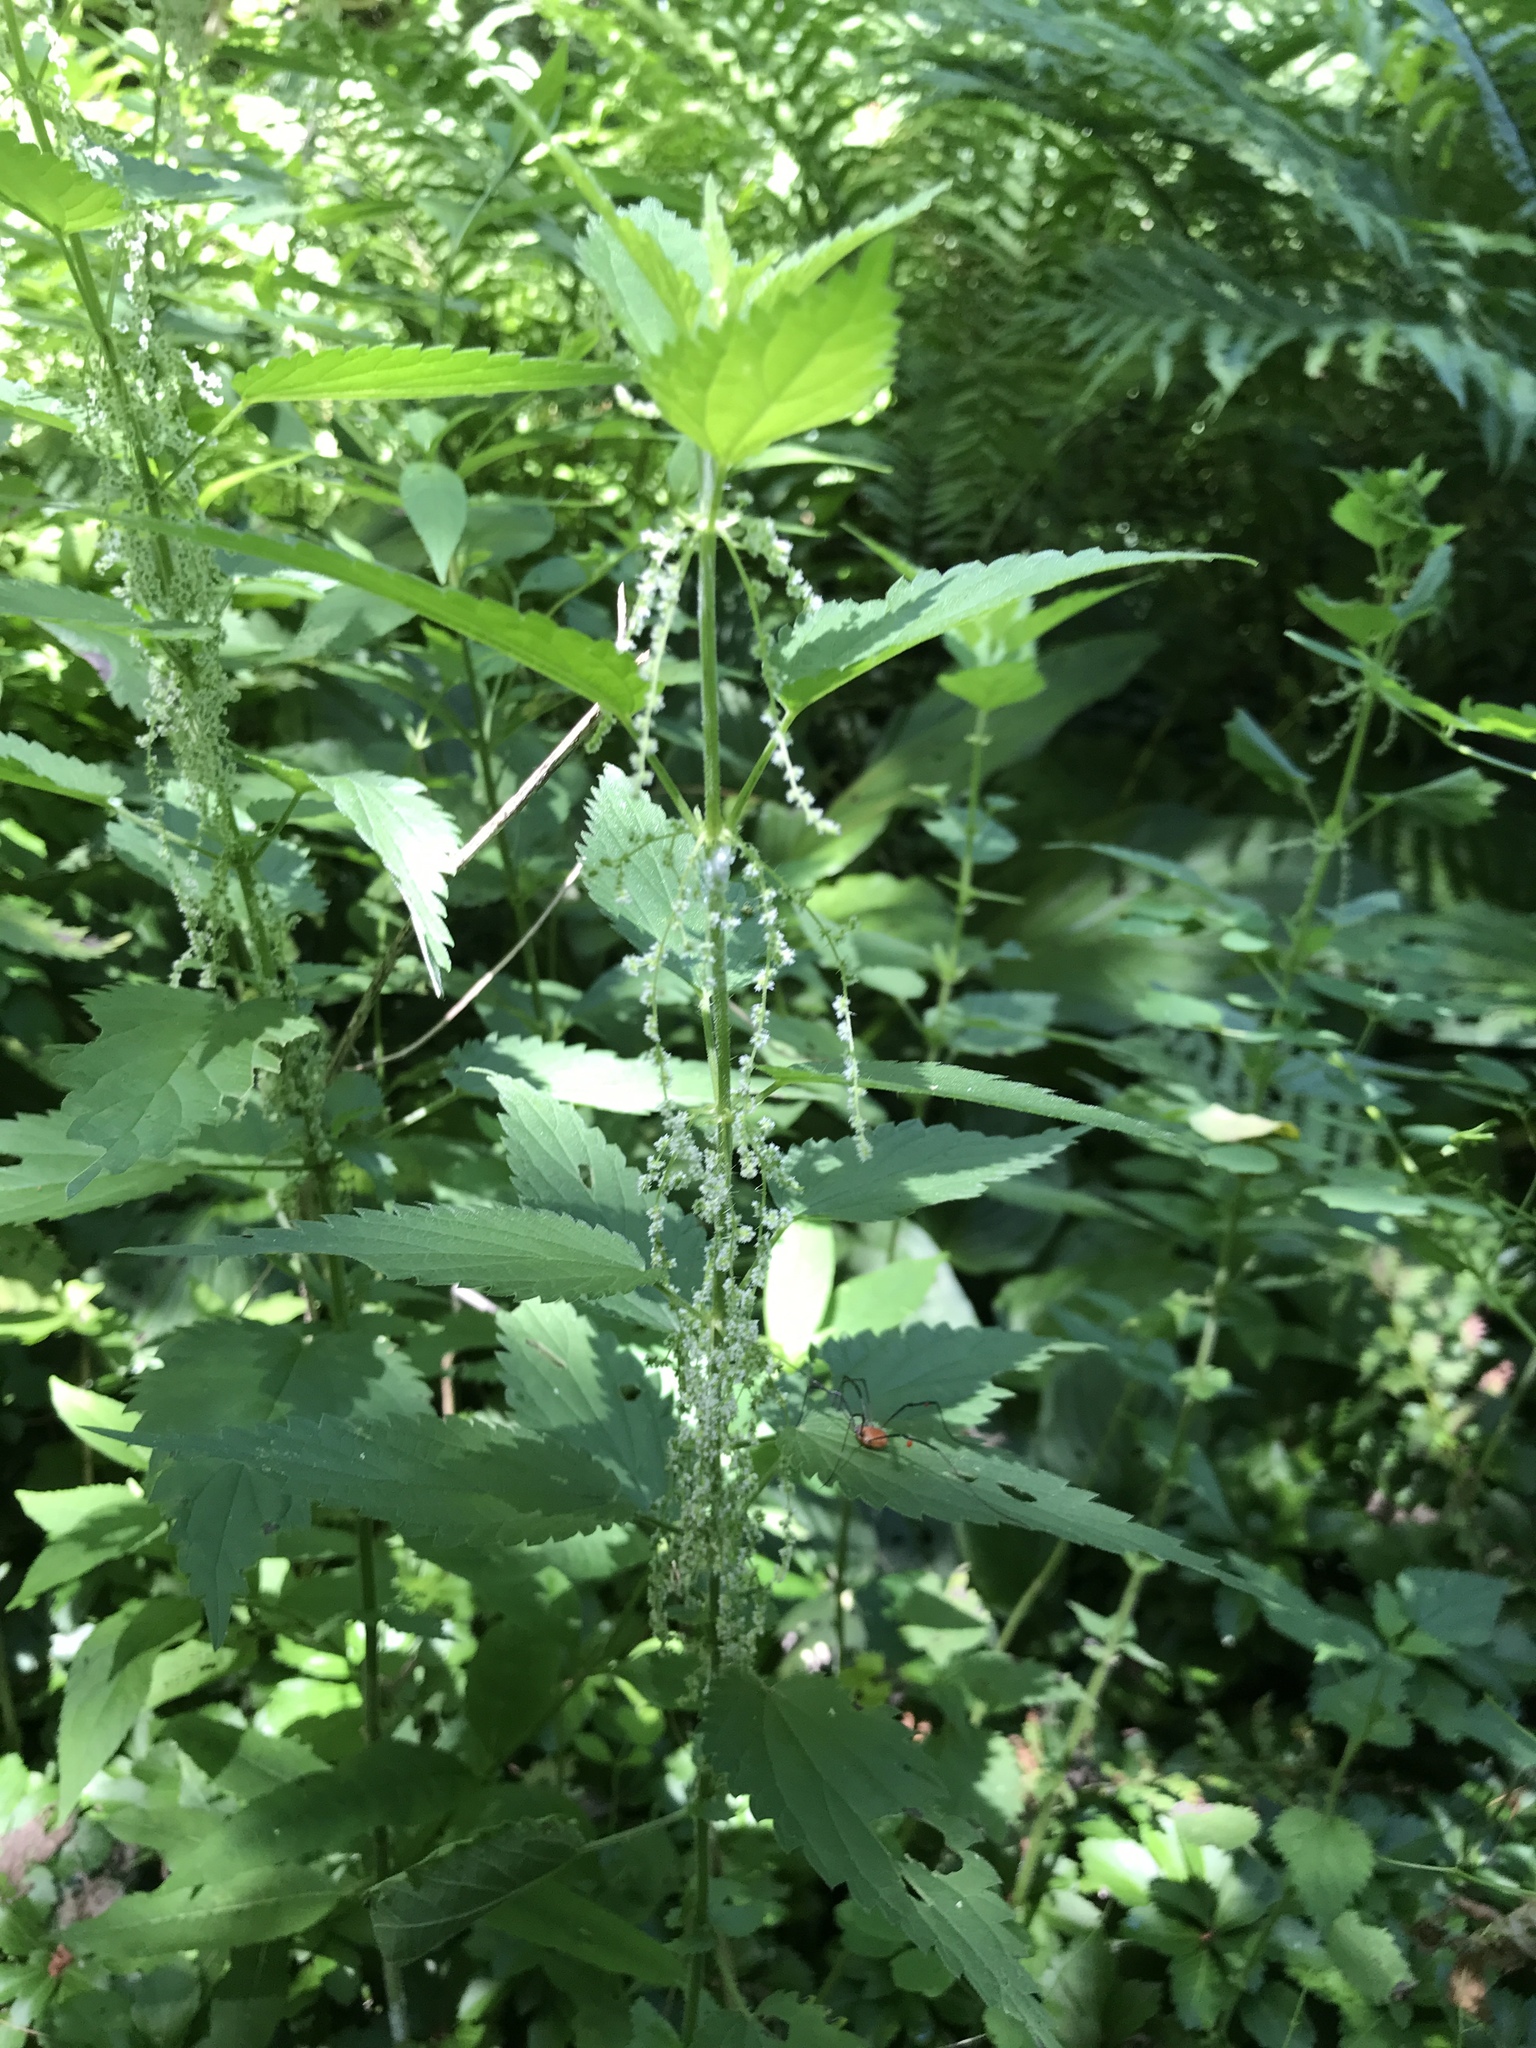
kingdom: Plantae
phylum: Tracheophyta
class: Magnoliopsida
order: Rosales
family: Urticaceae
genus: Urtica
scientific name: Urtica dioica
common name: Common nettle
